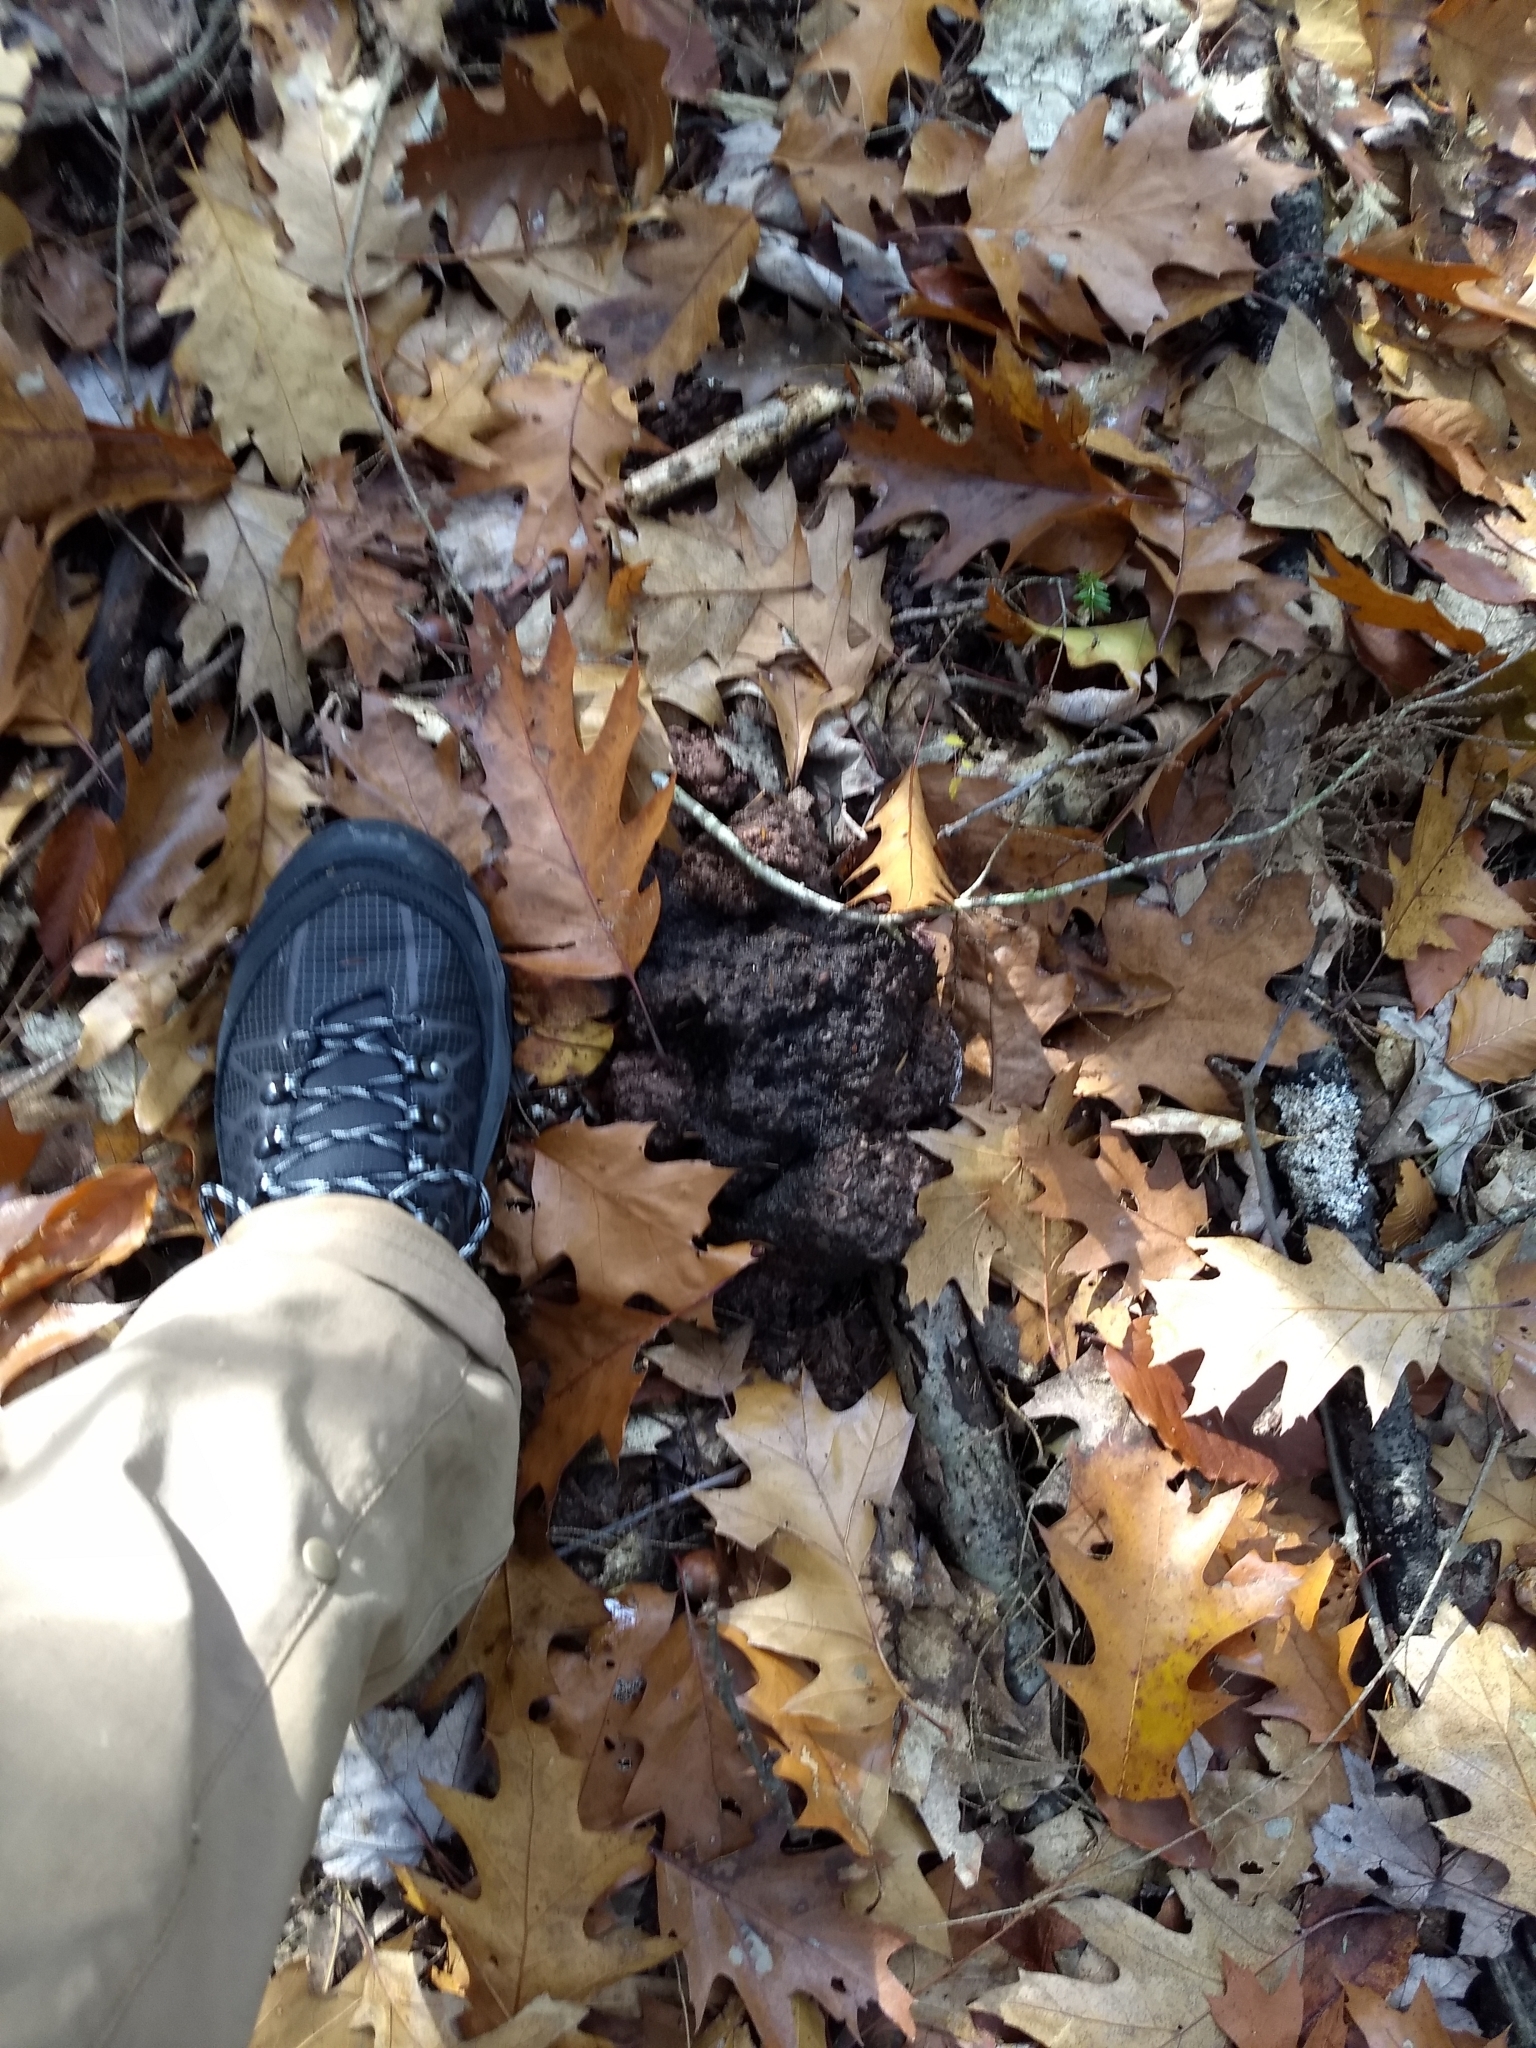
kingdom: Animalia
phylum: Chordata
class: Mammalia
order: Carnivora
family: Ursidae
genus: Ursus
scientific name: Ursus americanus
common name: American black bear
